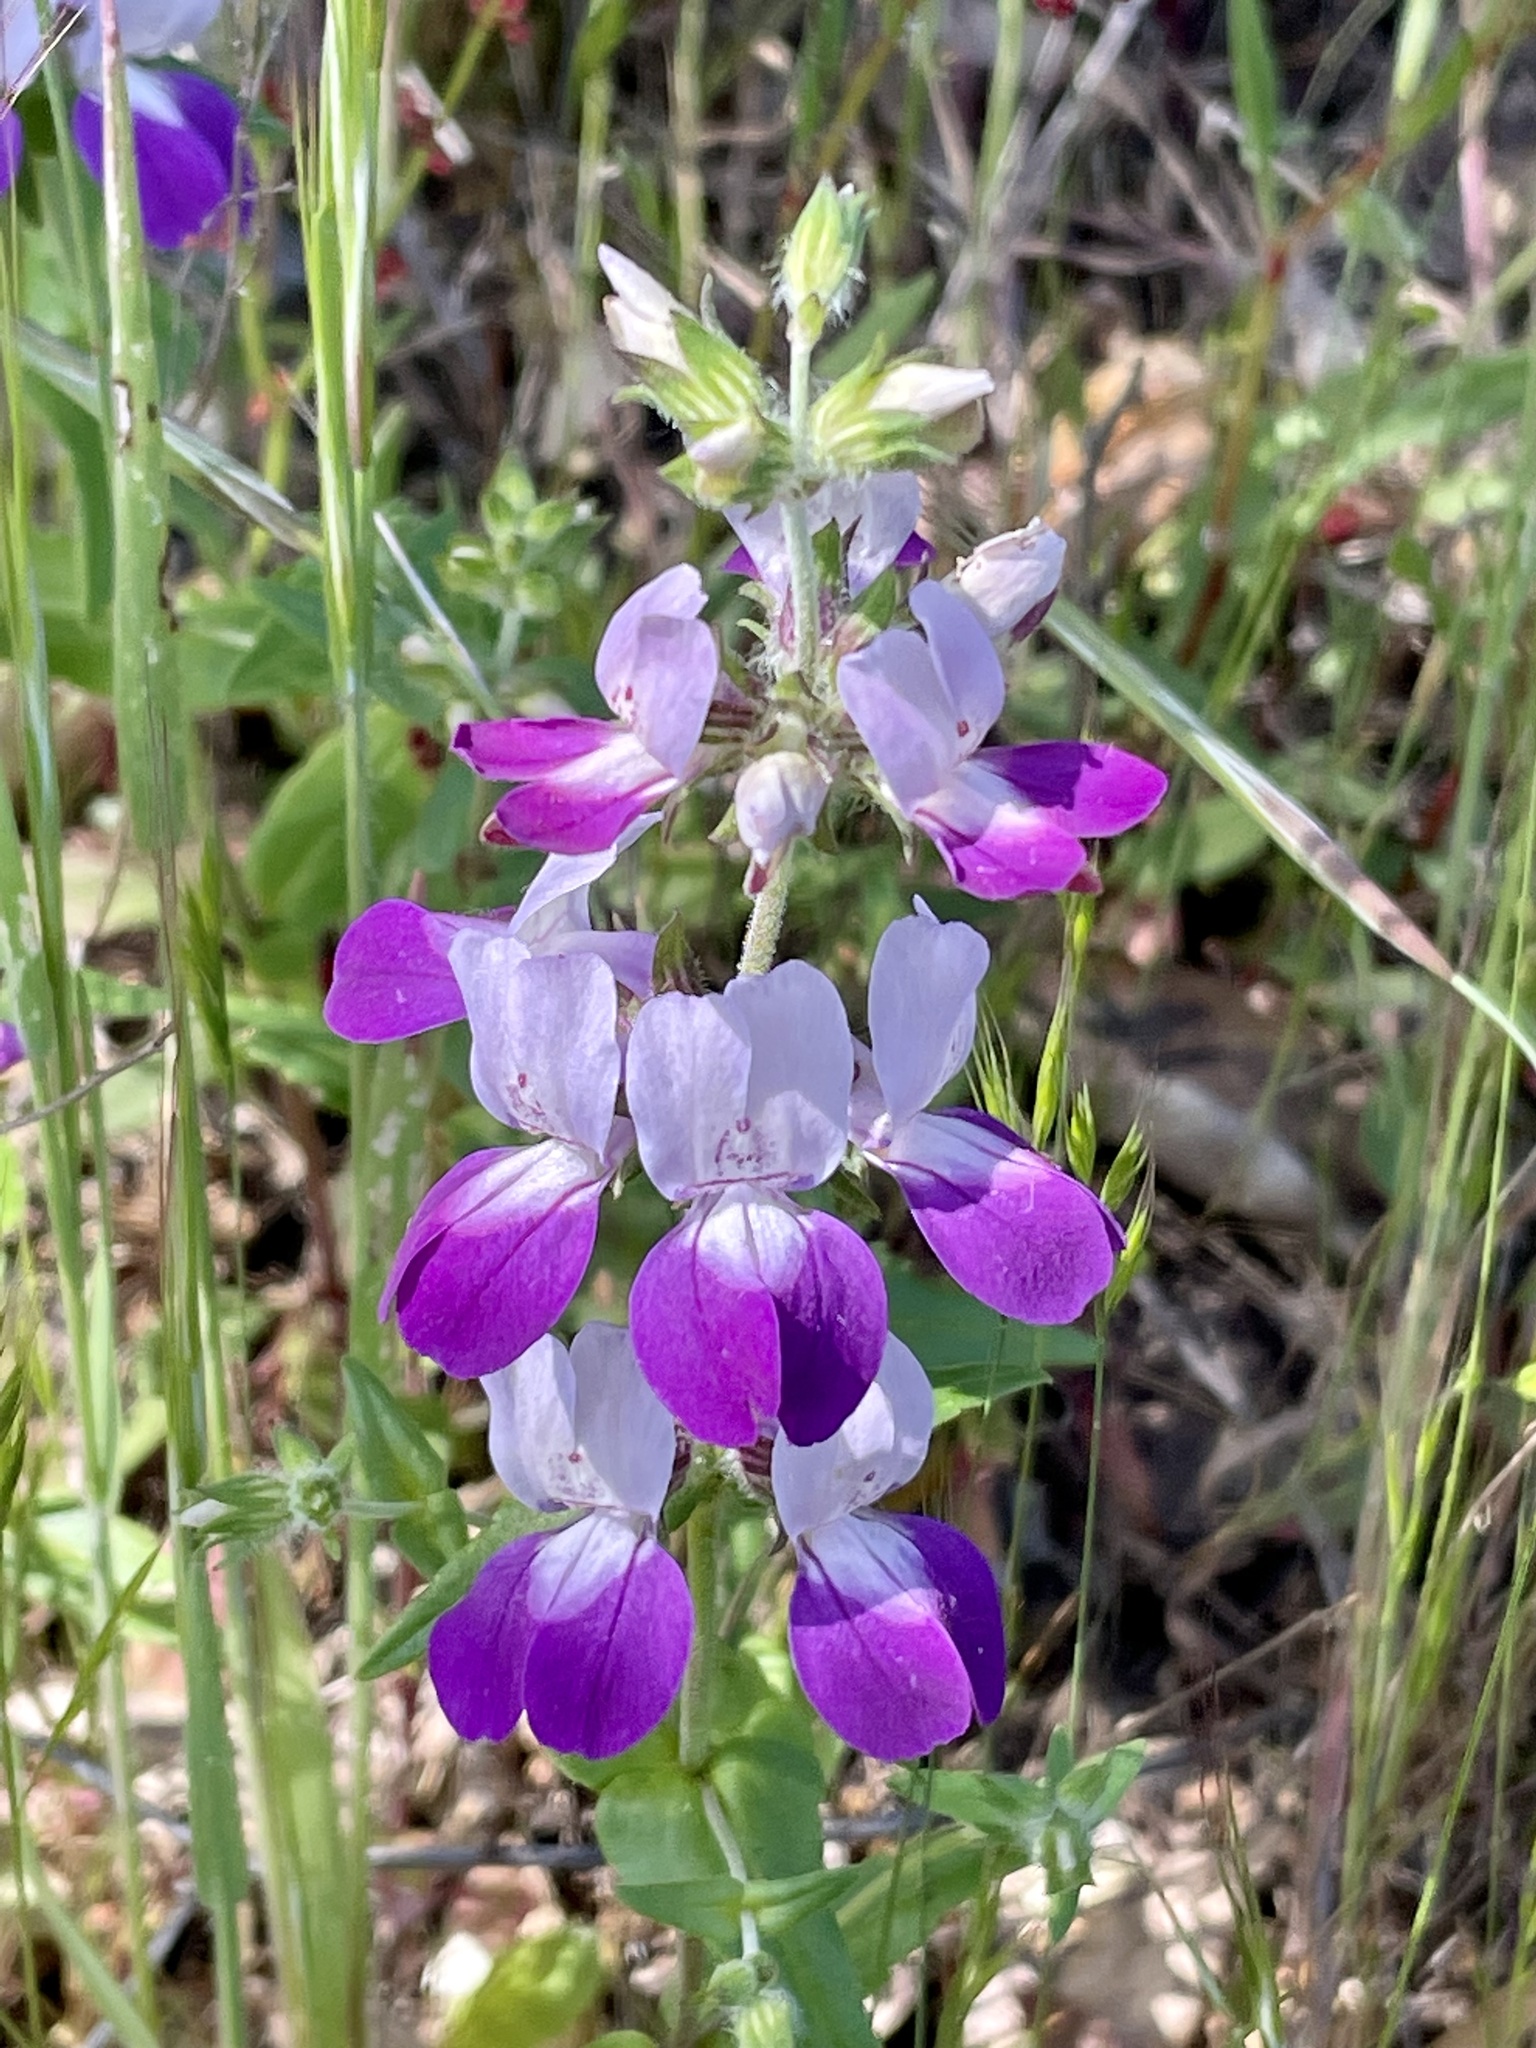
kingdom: Plantae
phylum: Tracheophyta
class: Magnoliopsida
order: Lamiales
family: Plantaginaceae
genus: Collinsia
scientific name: Collinsia heterophylla
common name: Chinese-houses
